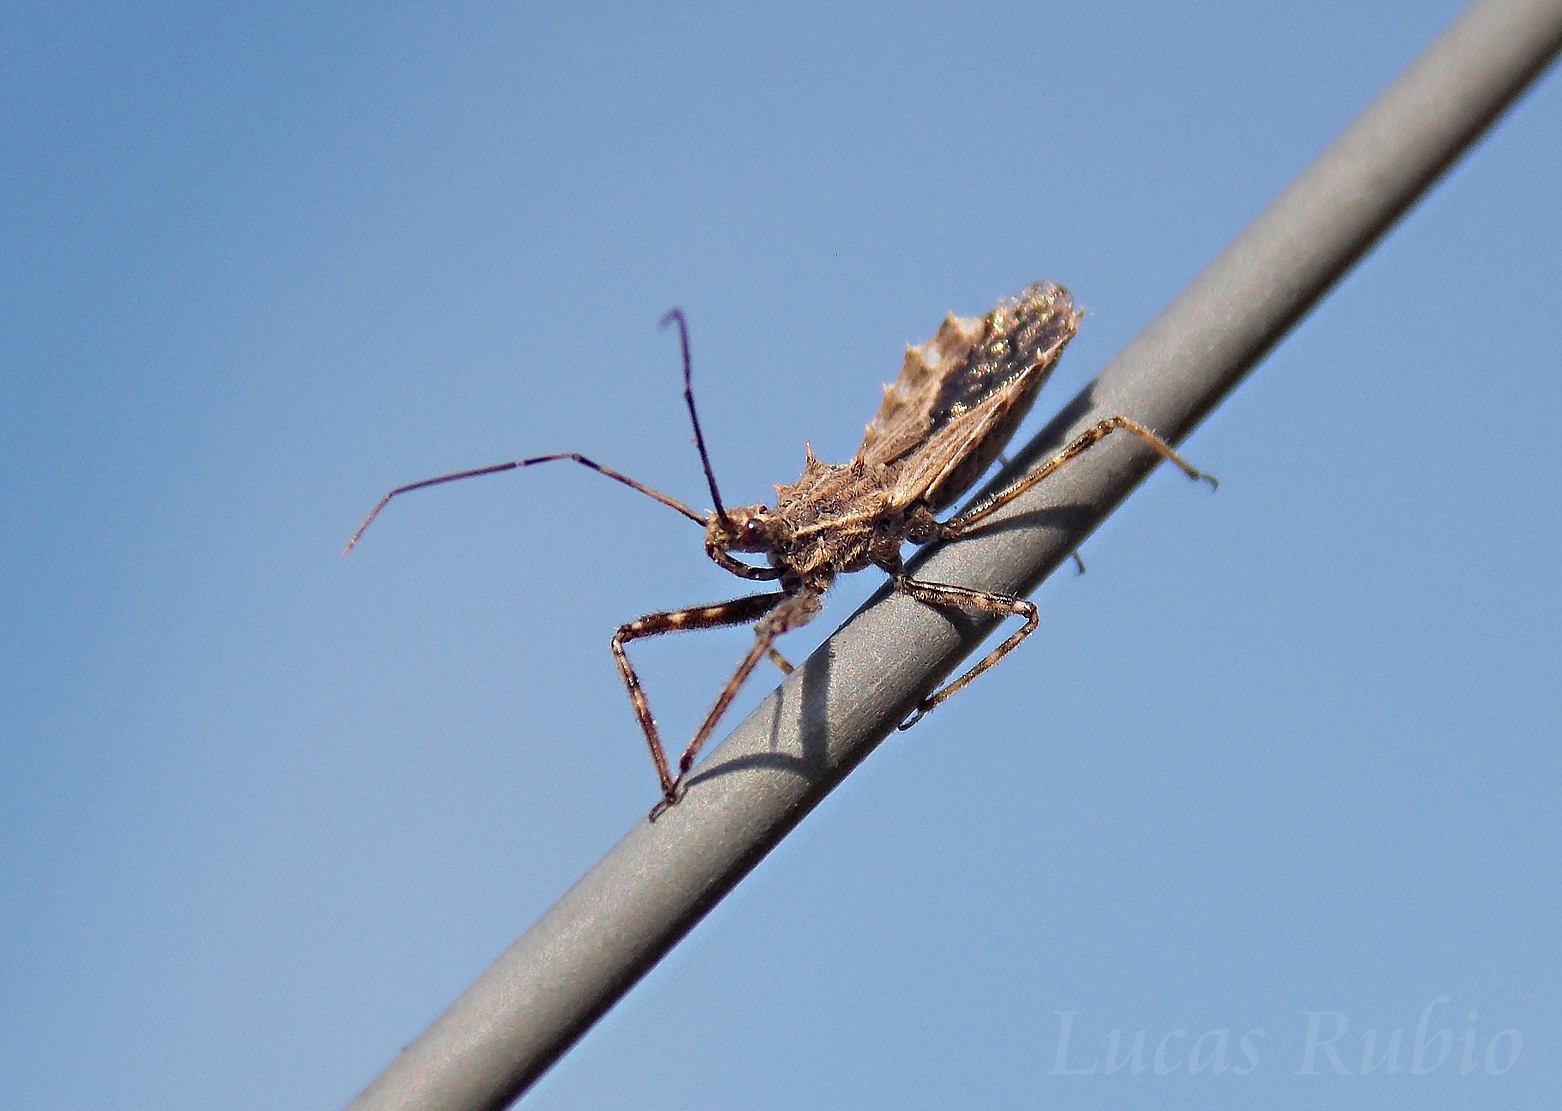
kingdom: Animalia
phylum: Arthropoda
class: Insecta
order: Hemiptera
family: Reduviidae
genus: Atrachelus
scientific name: Atrachelus cinereus
